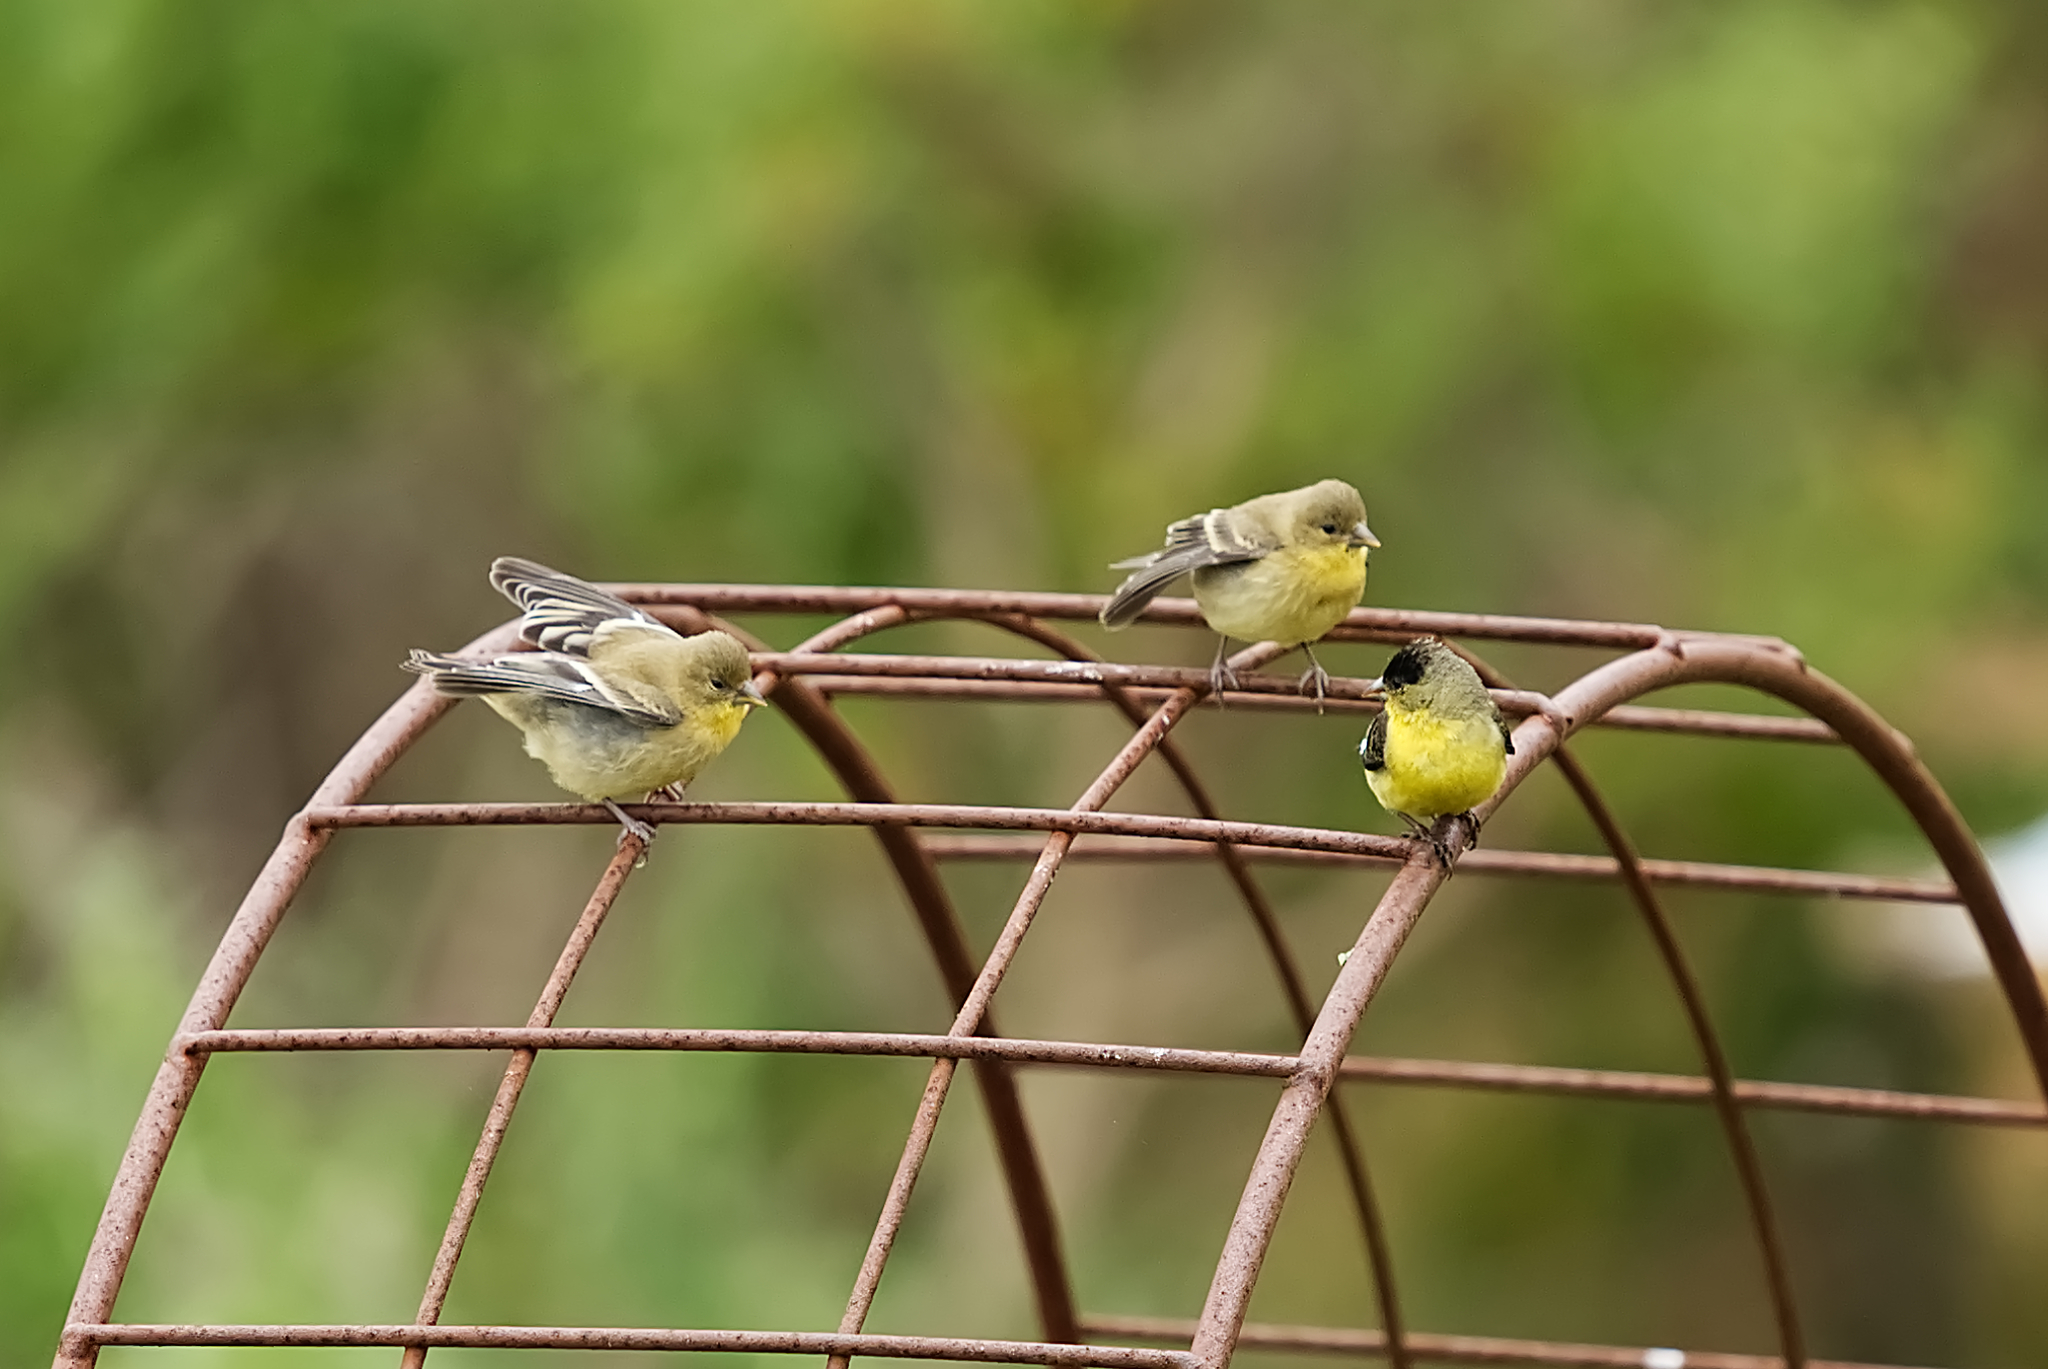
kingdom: Animalia
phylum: Chordata
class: Aves
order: Passeriformes
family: Fringillidae
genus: Spinus
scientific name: Spinus psaltria
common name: Lesser goldfinch
